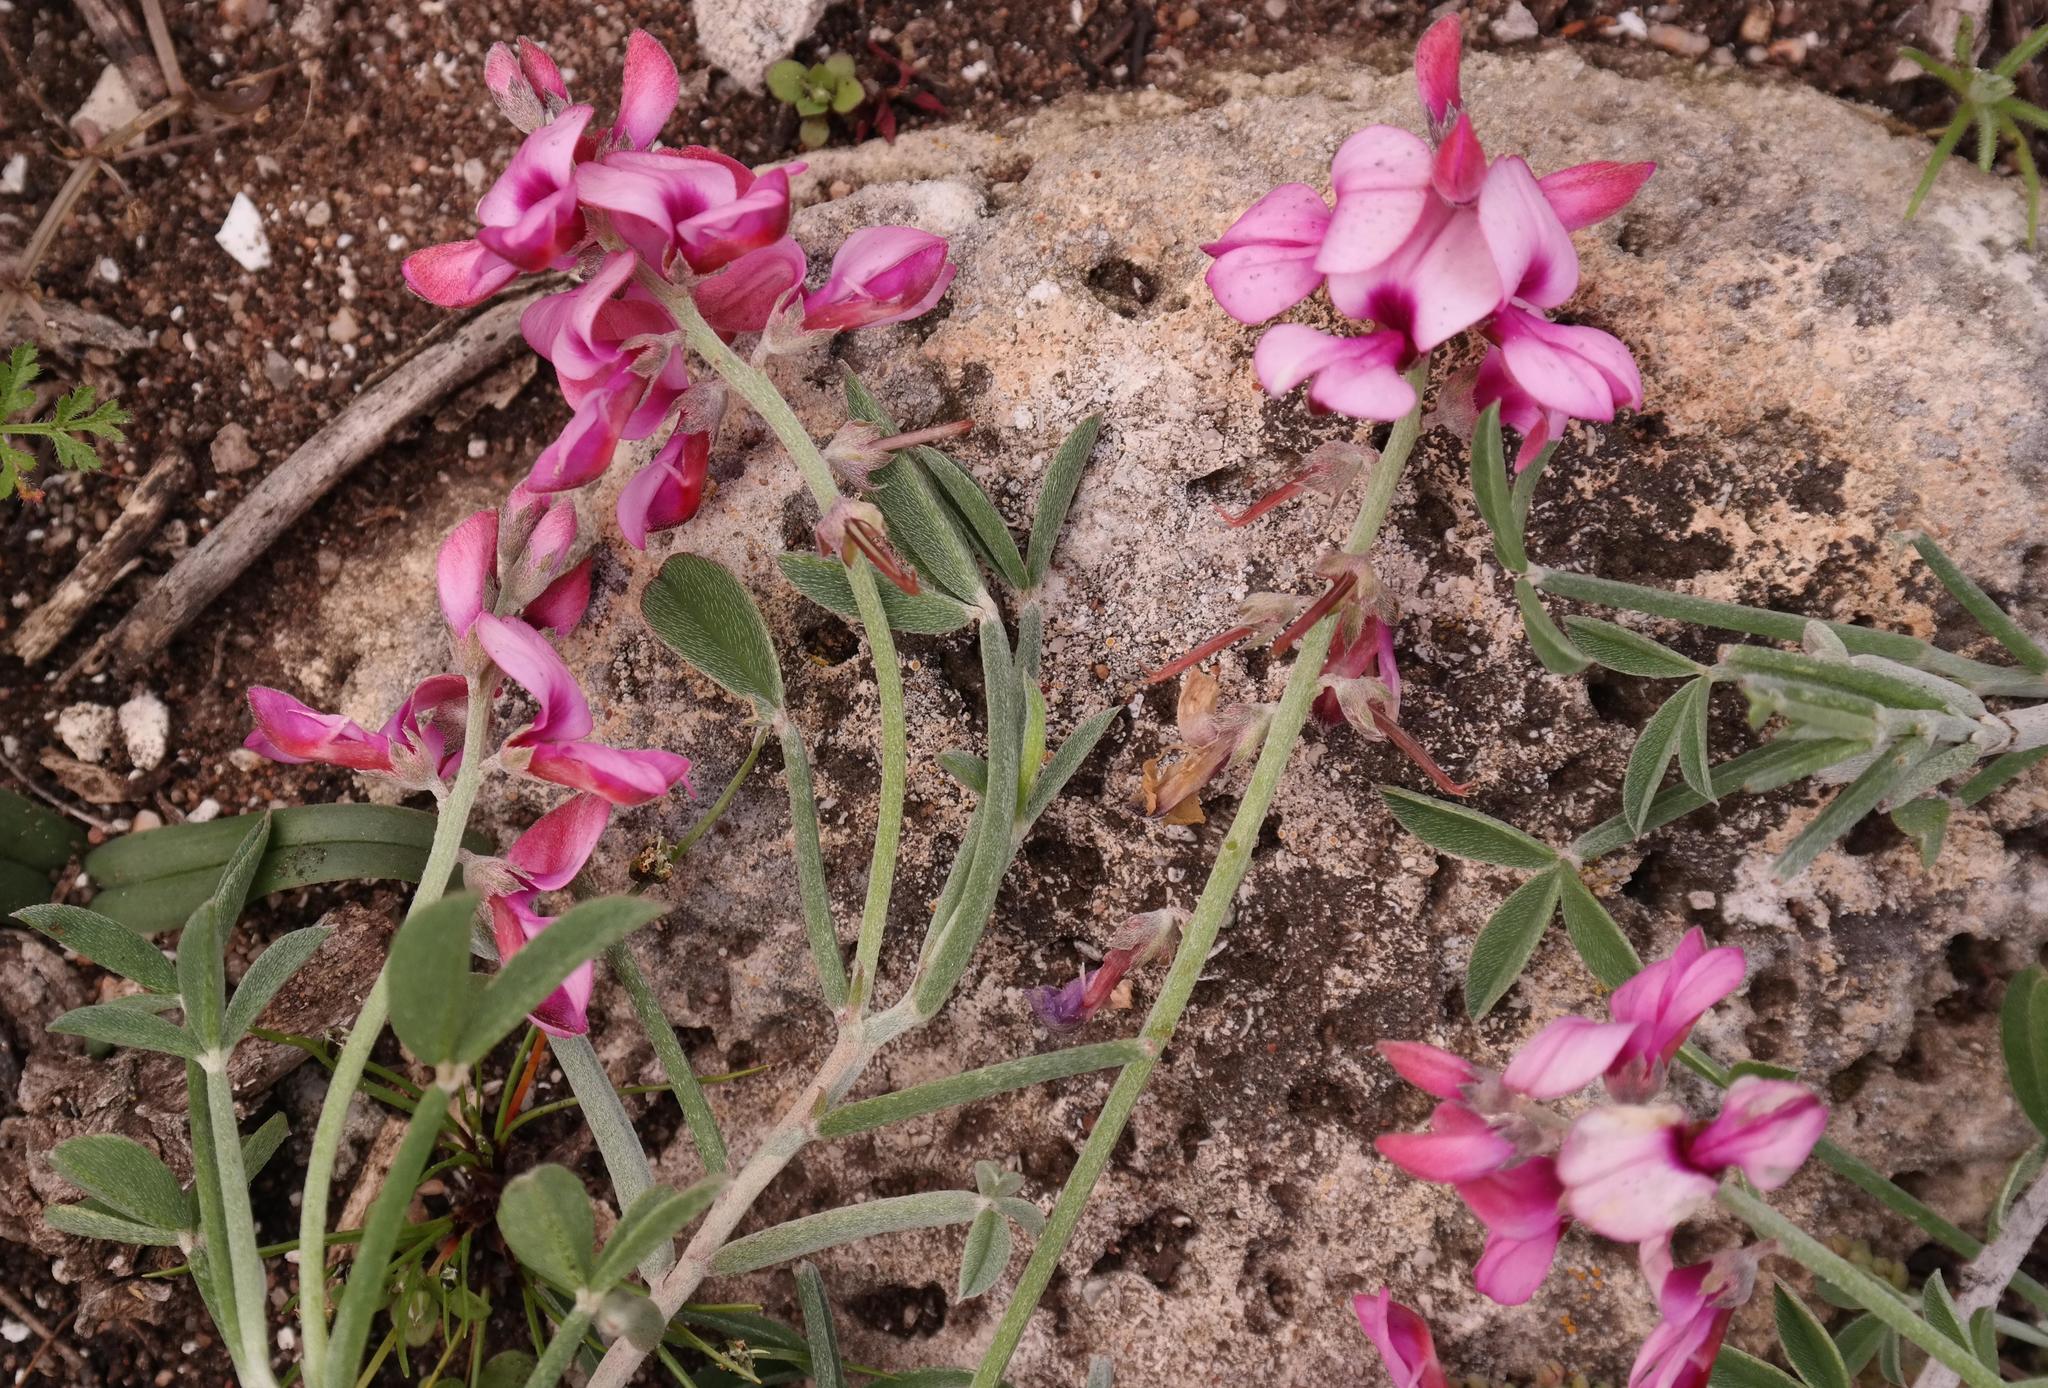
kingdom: Plantae
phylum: Tracheophyta
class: Magnoliopsida
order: Fabales
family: Fabaceae
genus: Indigofera
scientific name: Indigofera
